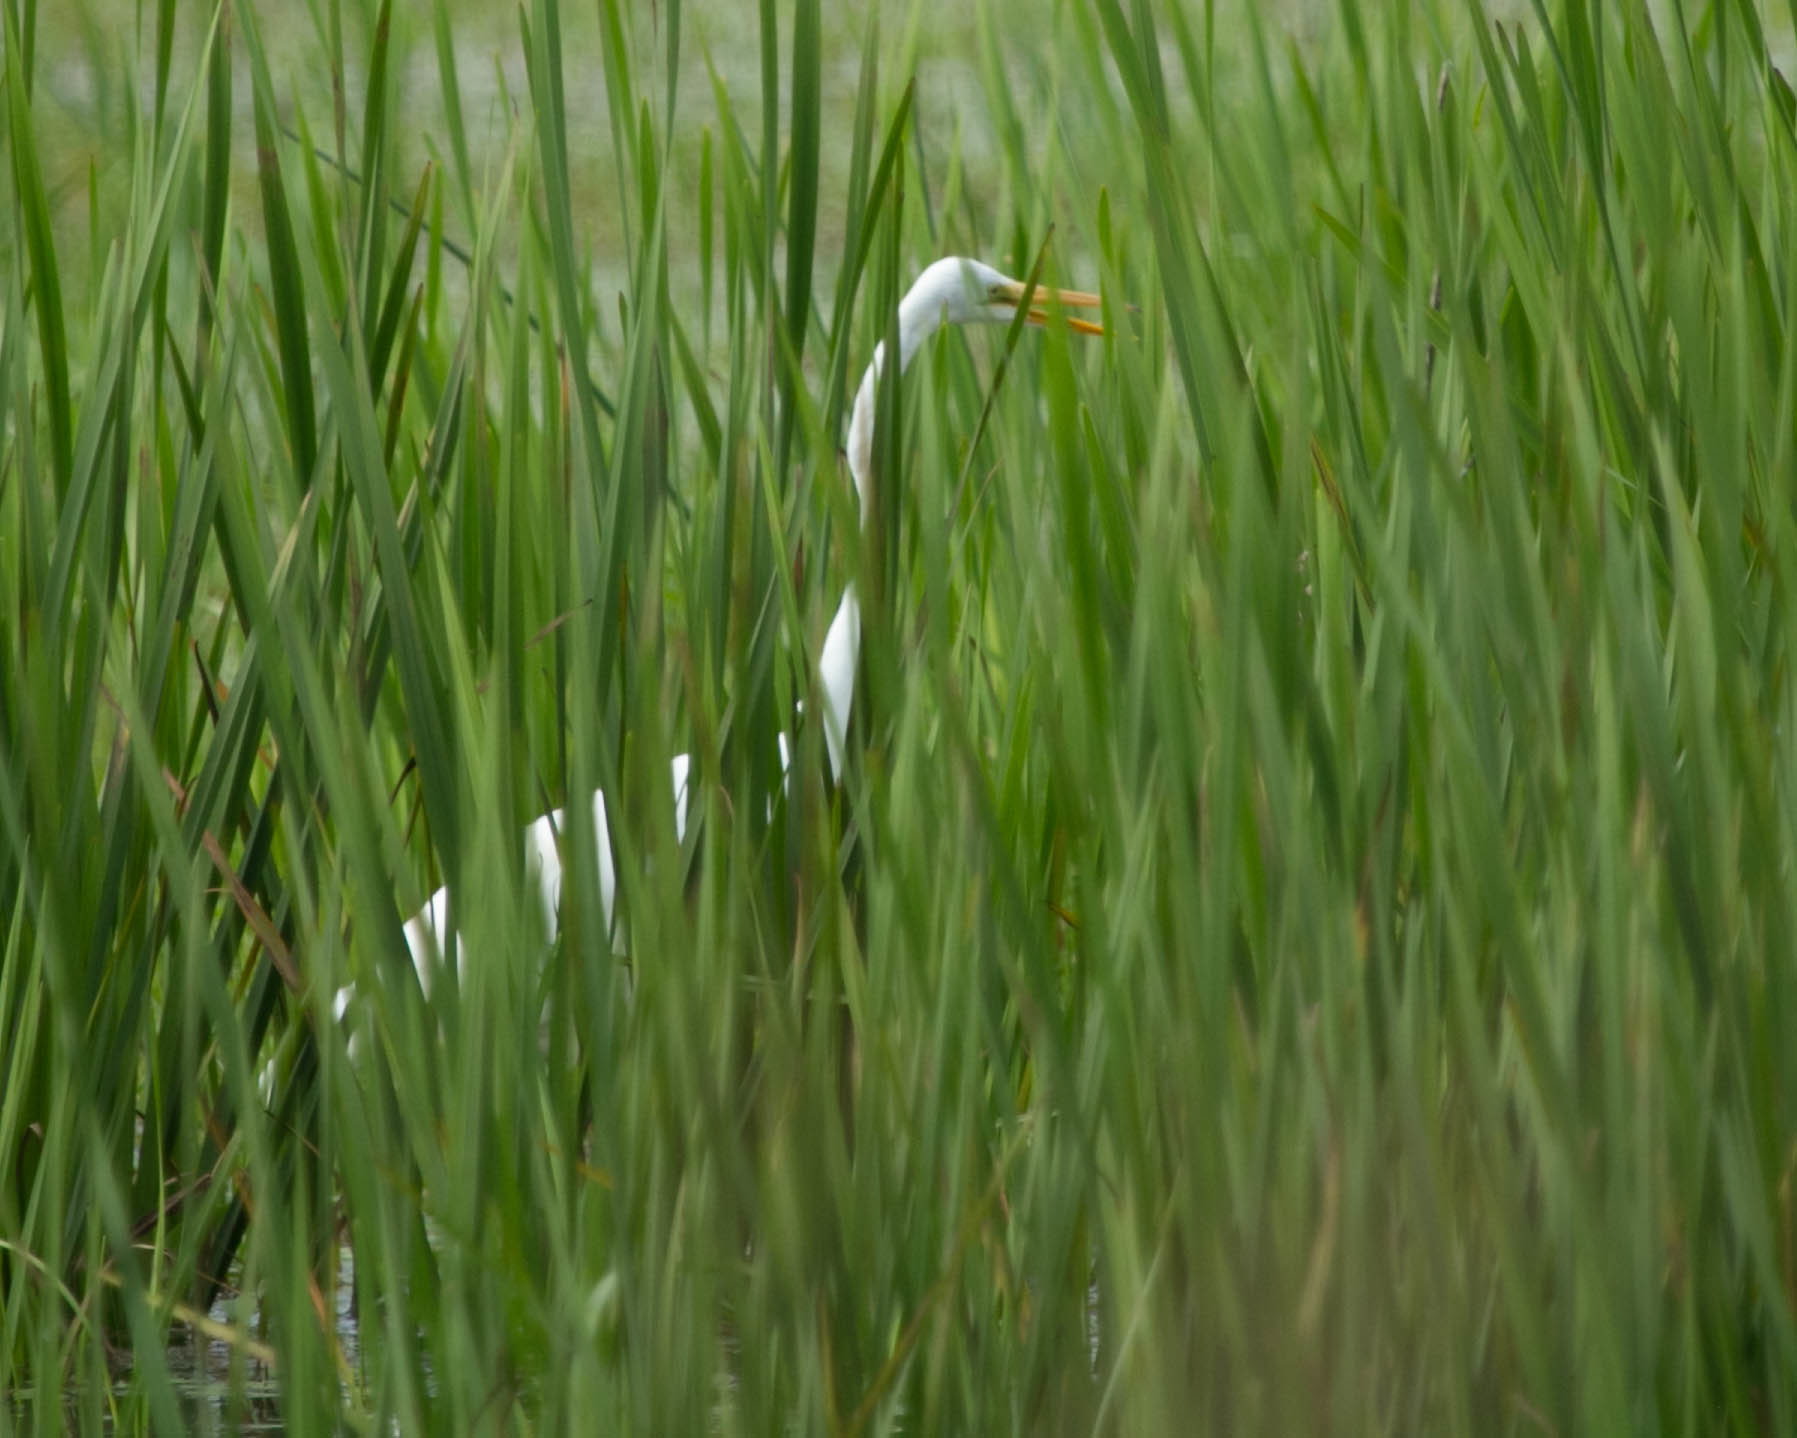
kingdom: Animalia
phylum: Chordata
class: Aves
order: Pelecaniformes
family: Ardeidae
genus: Ardea
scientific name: Ardea alba
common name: Great egret
